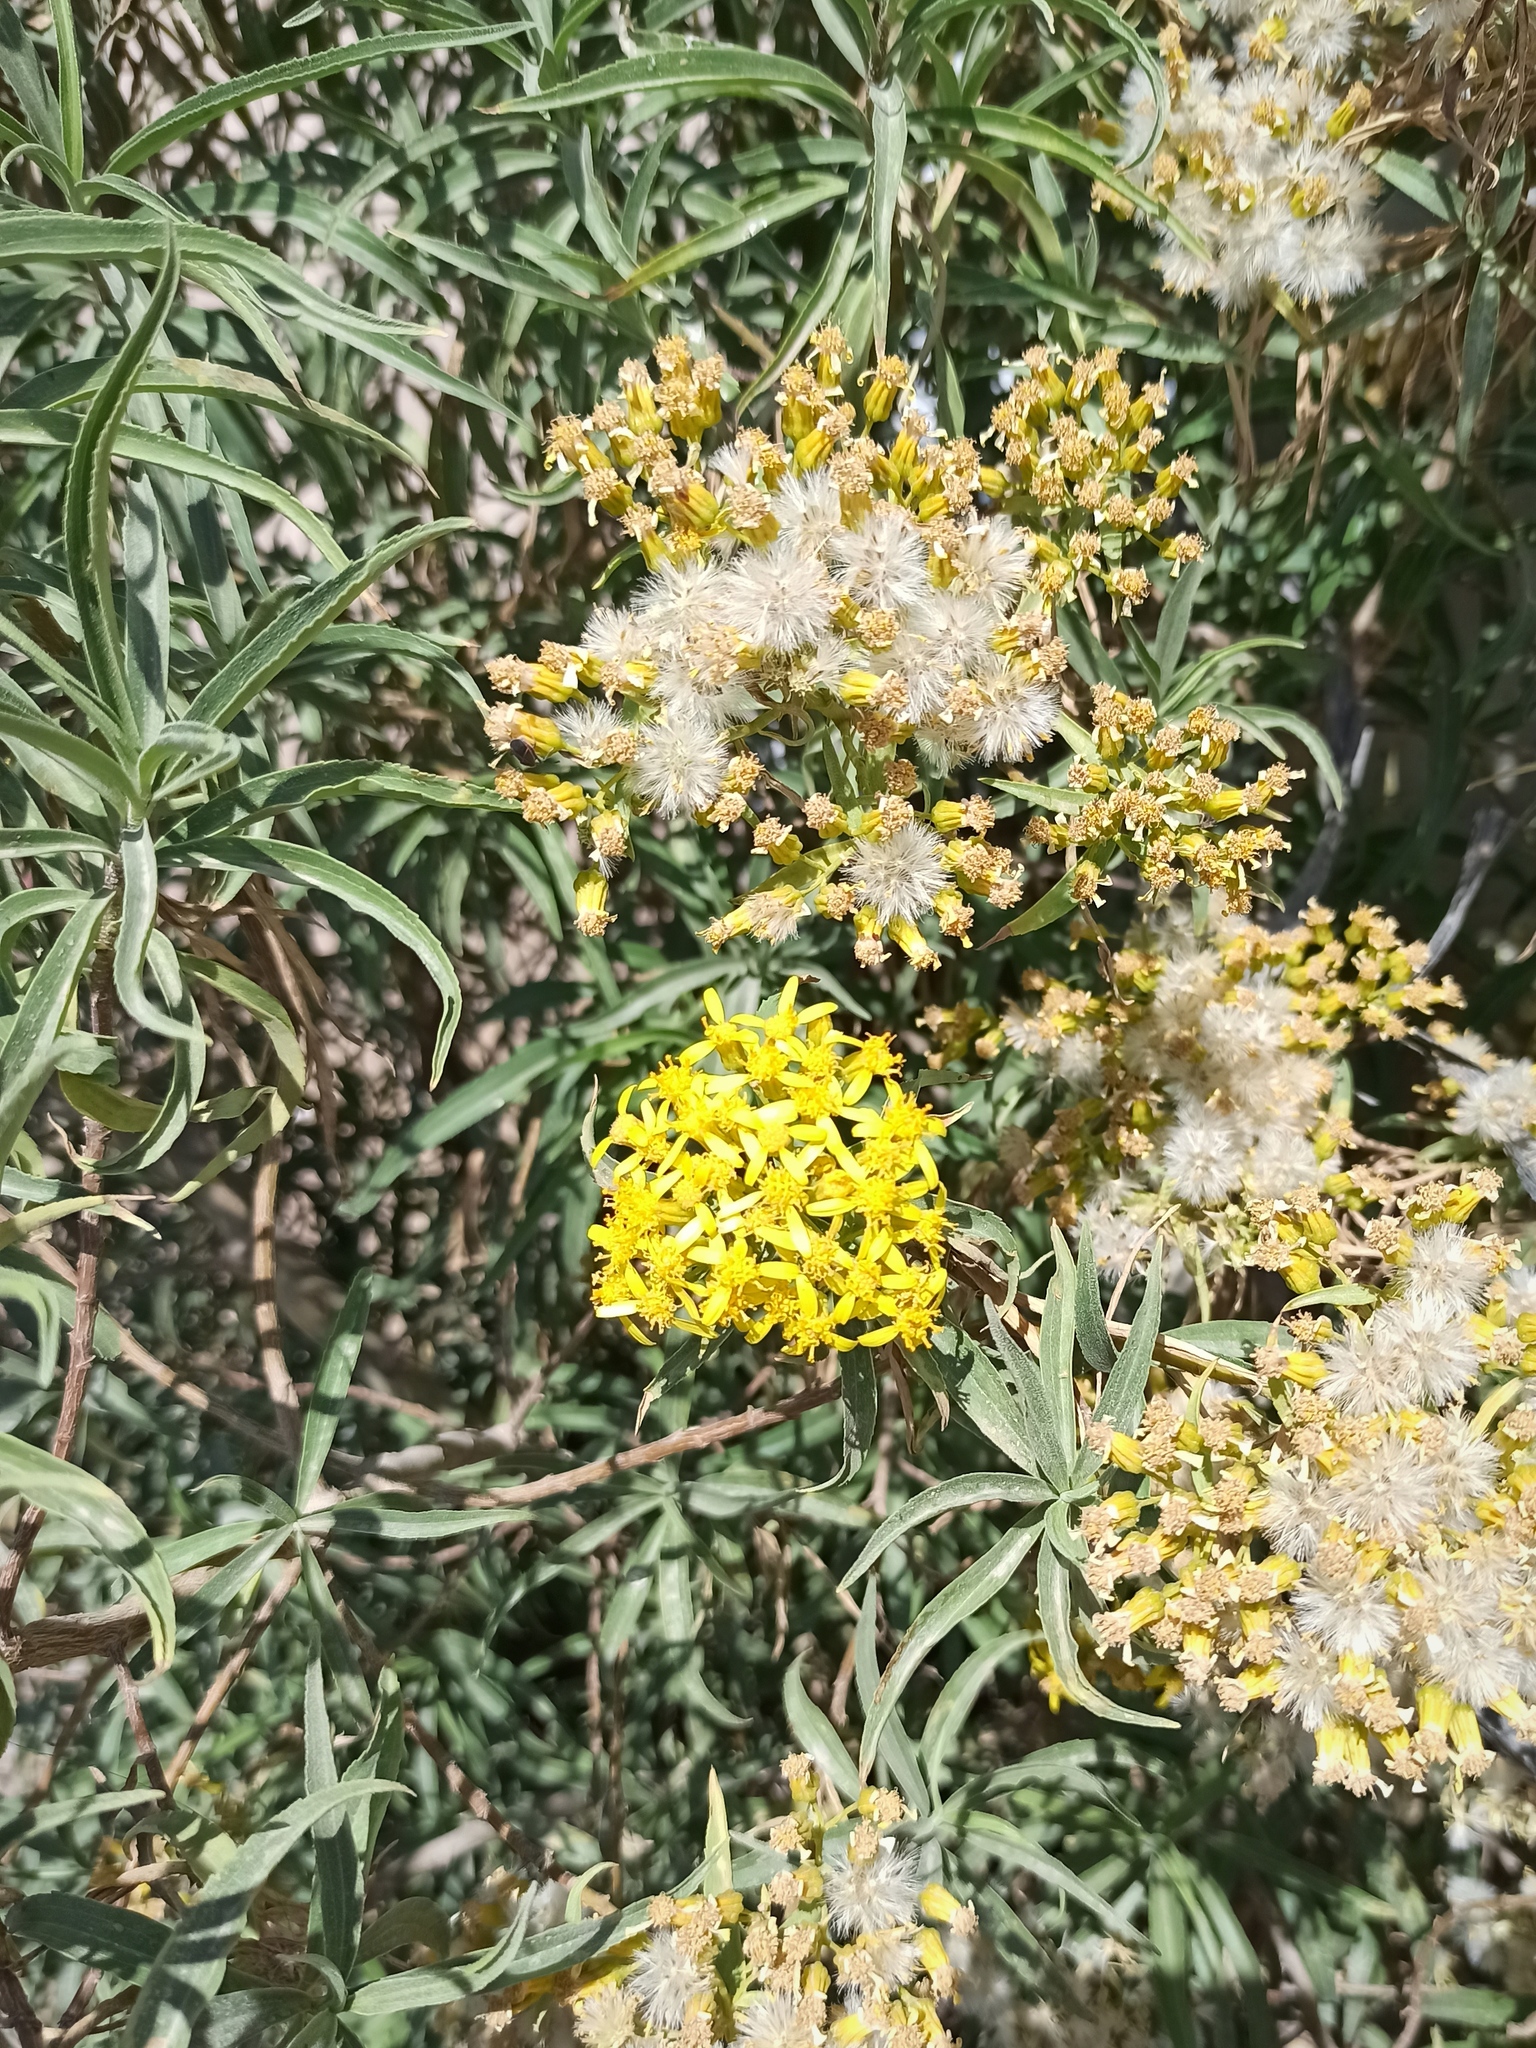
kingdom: Plantae
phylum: Tracheophyta
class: Magnoliopsida
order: Asterales
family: Asteraceae
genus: Barkleyanthus
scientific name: Barkleyanthus salicifolius
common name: Willow ragwort
